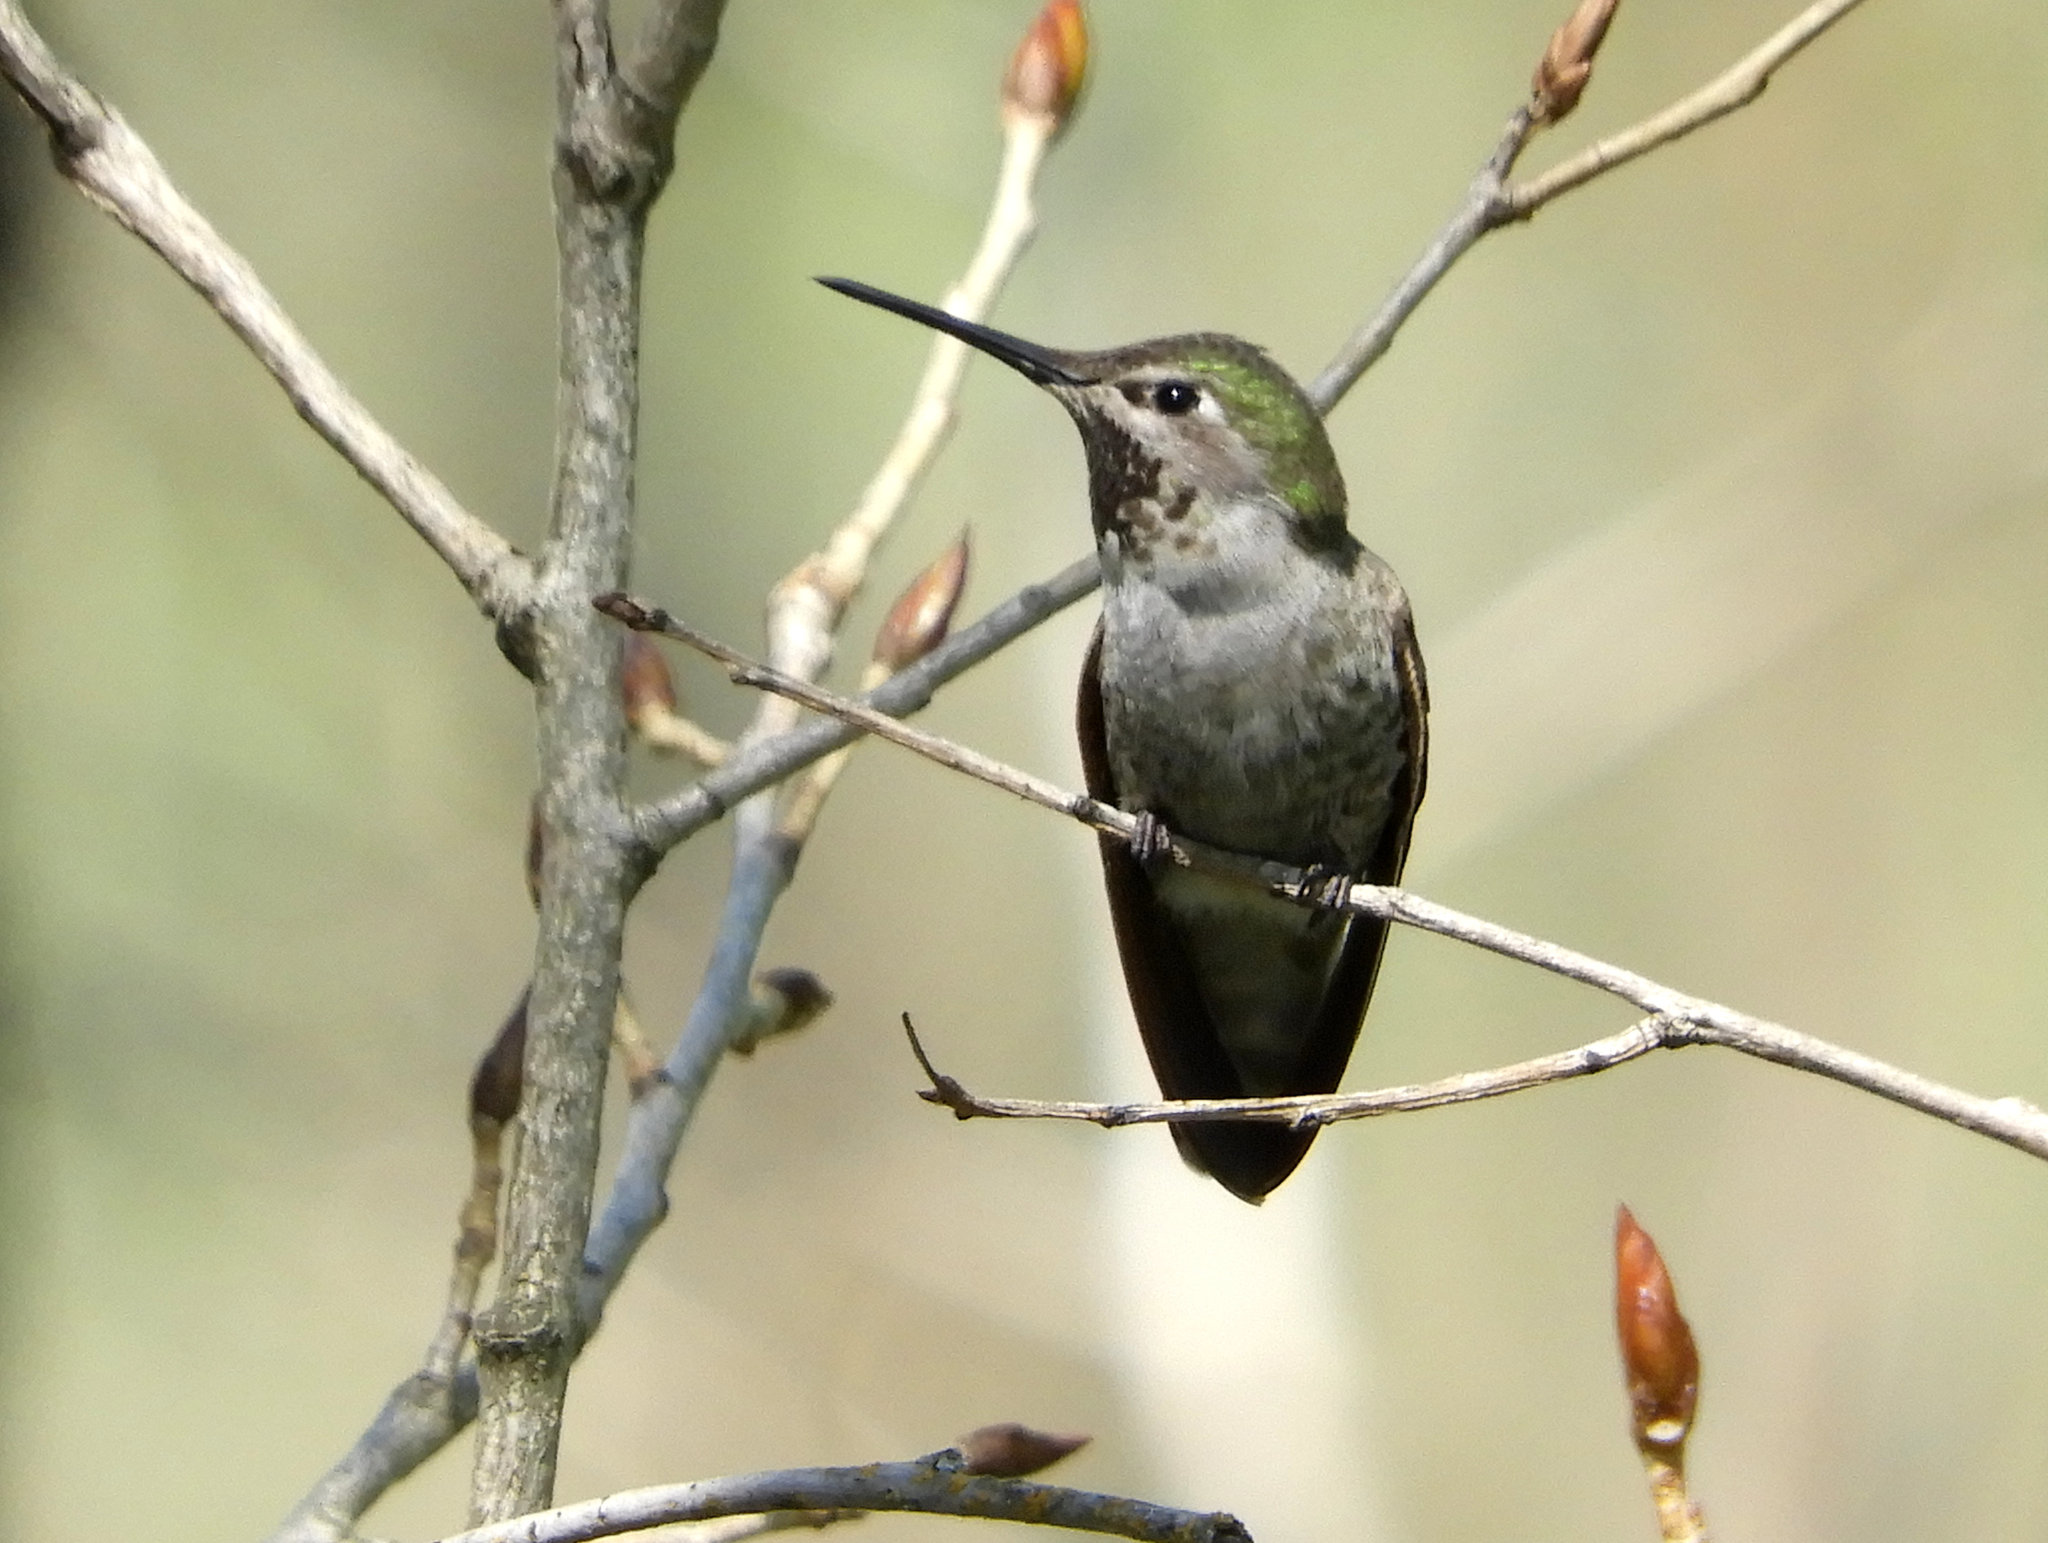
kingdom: Animalia
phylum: Chordata
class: Aves
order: Apodiformes
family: Trochilidae
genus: Calypte
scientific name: Calypte anna
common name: Anna's hummingbird
